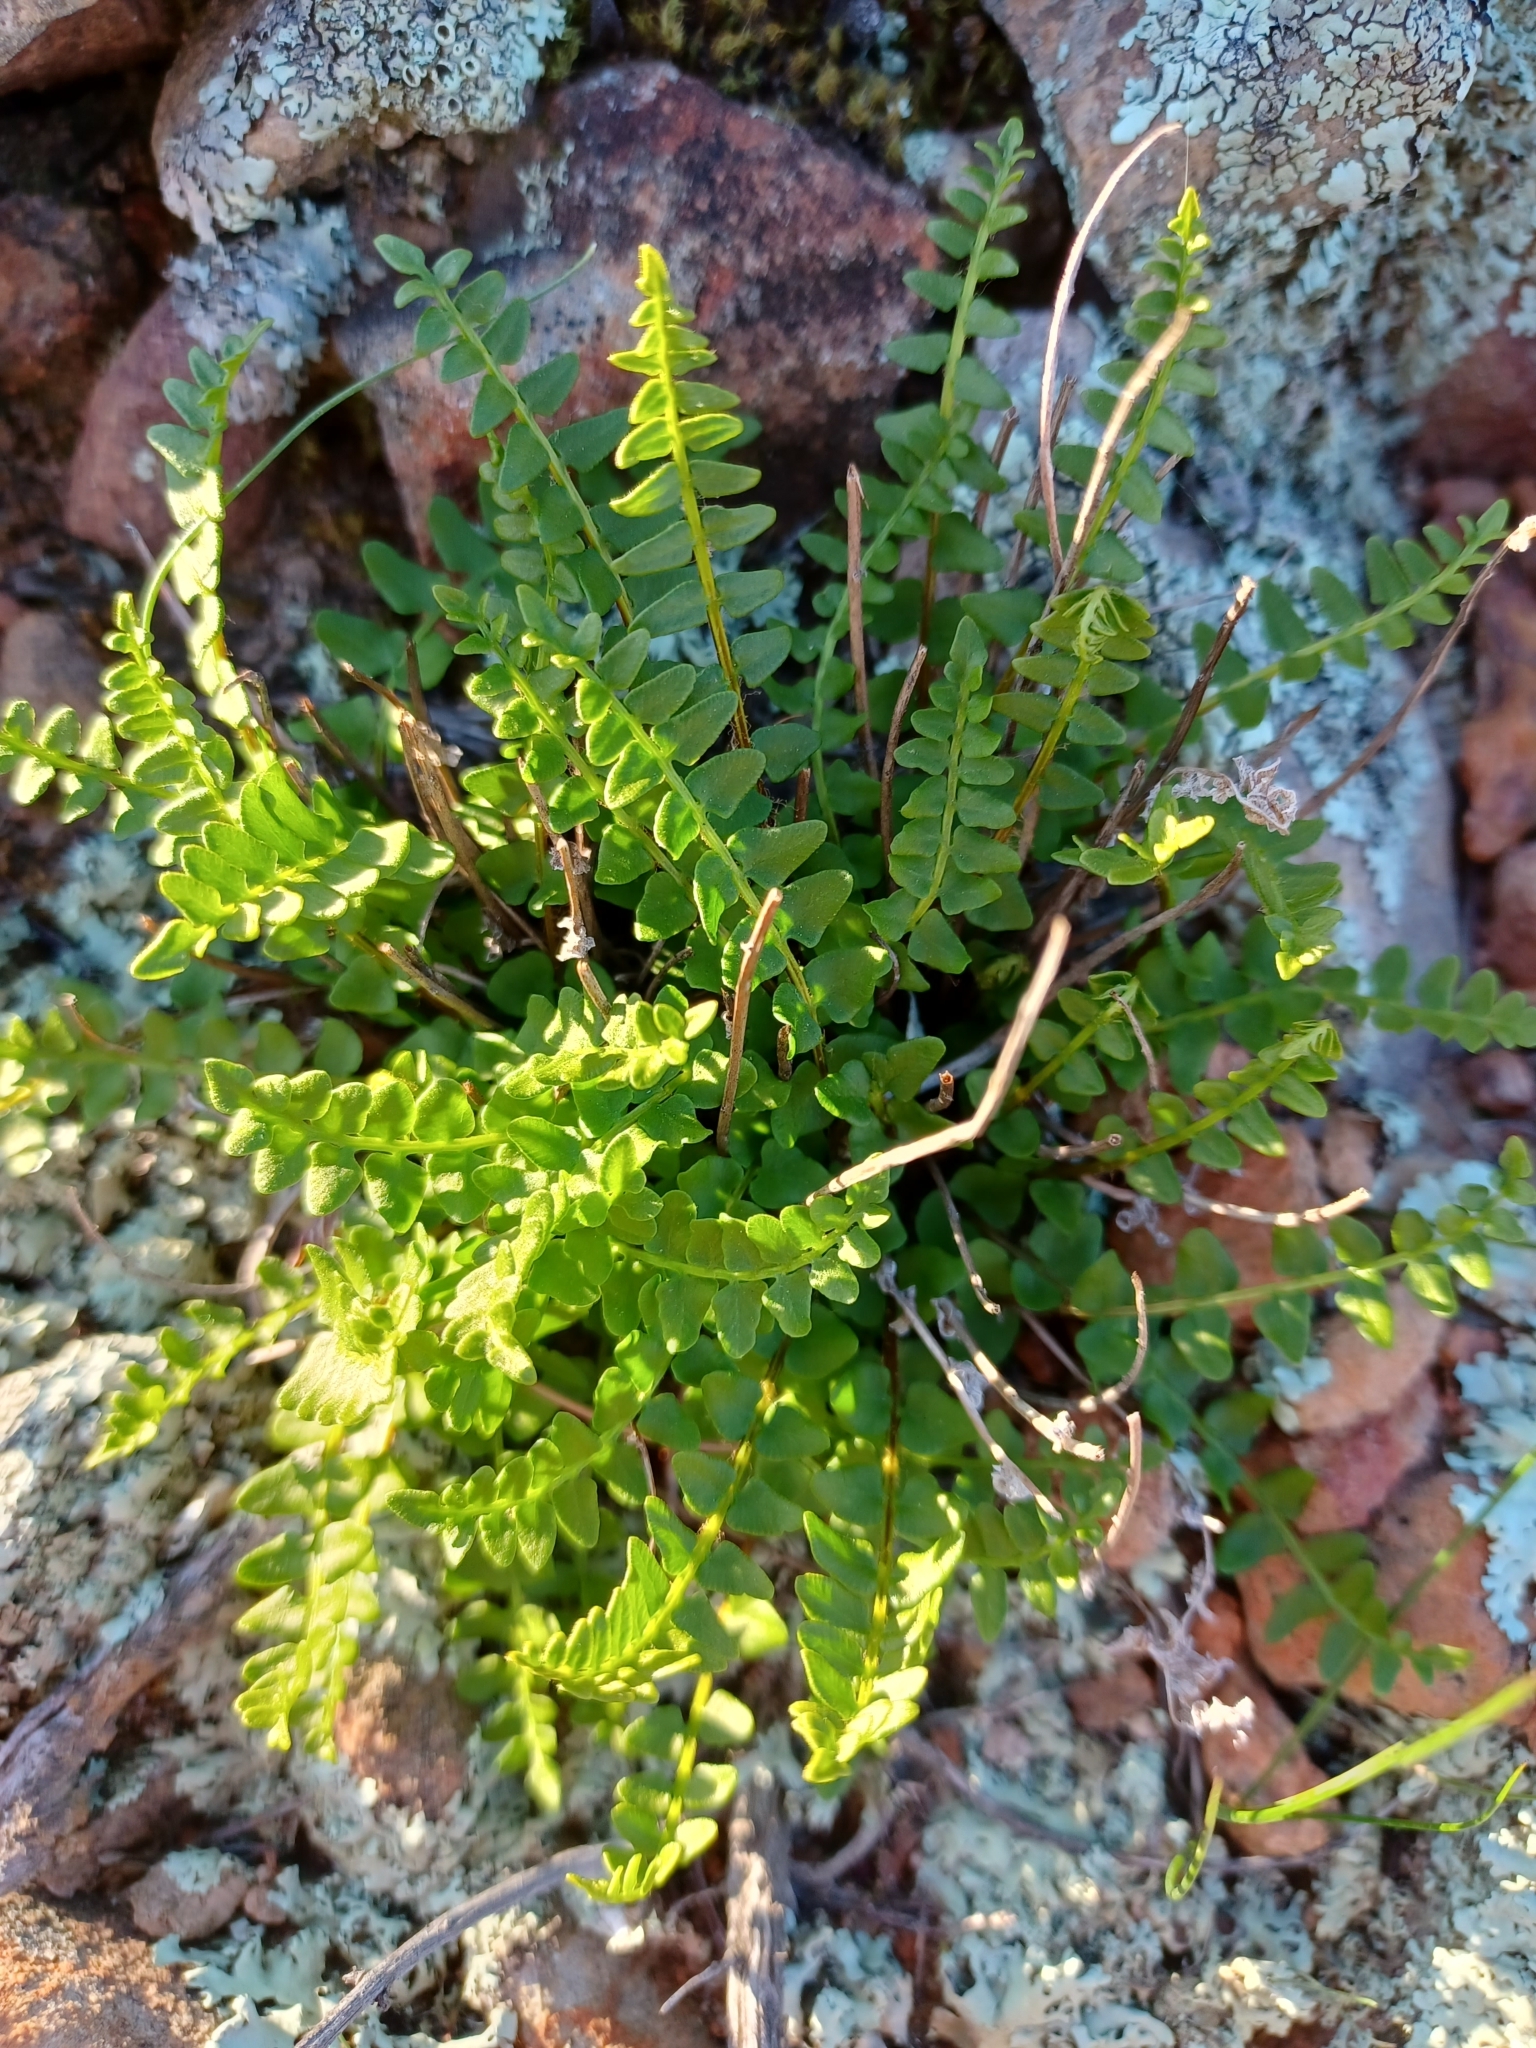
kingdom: Plantae
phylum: Tracheophyta
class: Polypodiopsida
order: Polypodiales
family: Pteridaceae
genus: Cheilanthes
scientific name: Cheilanthes hastata
